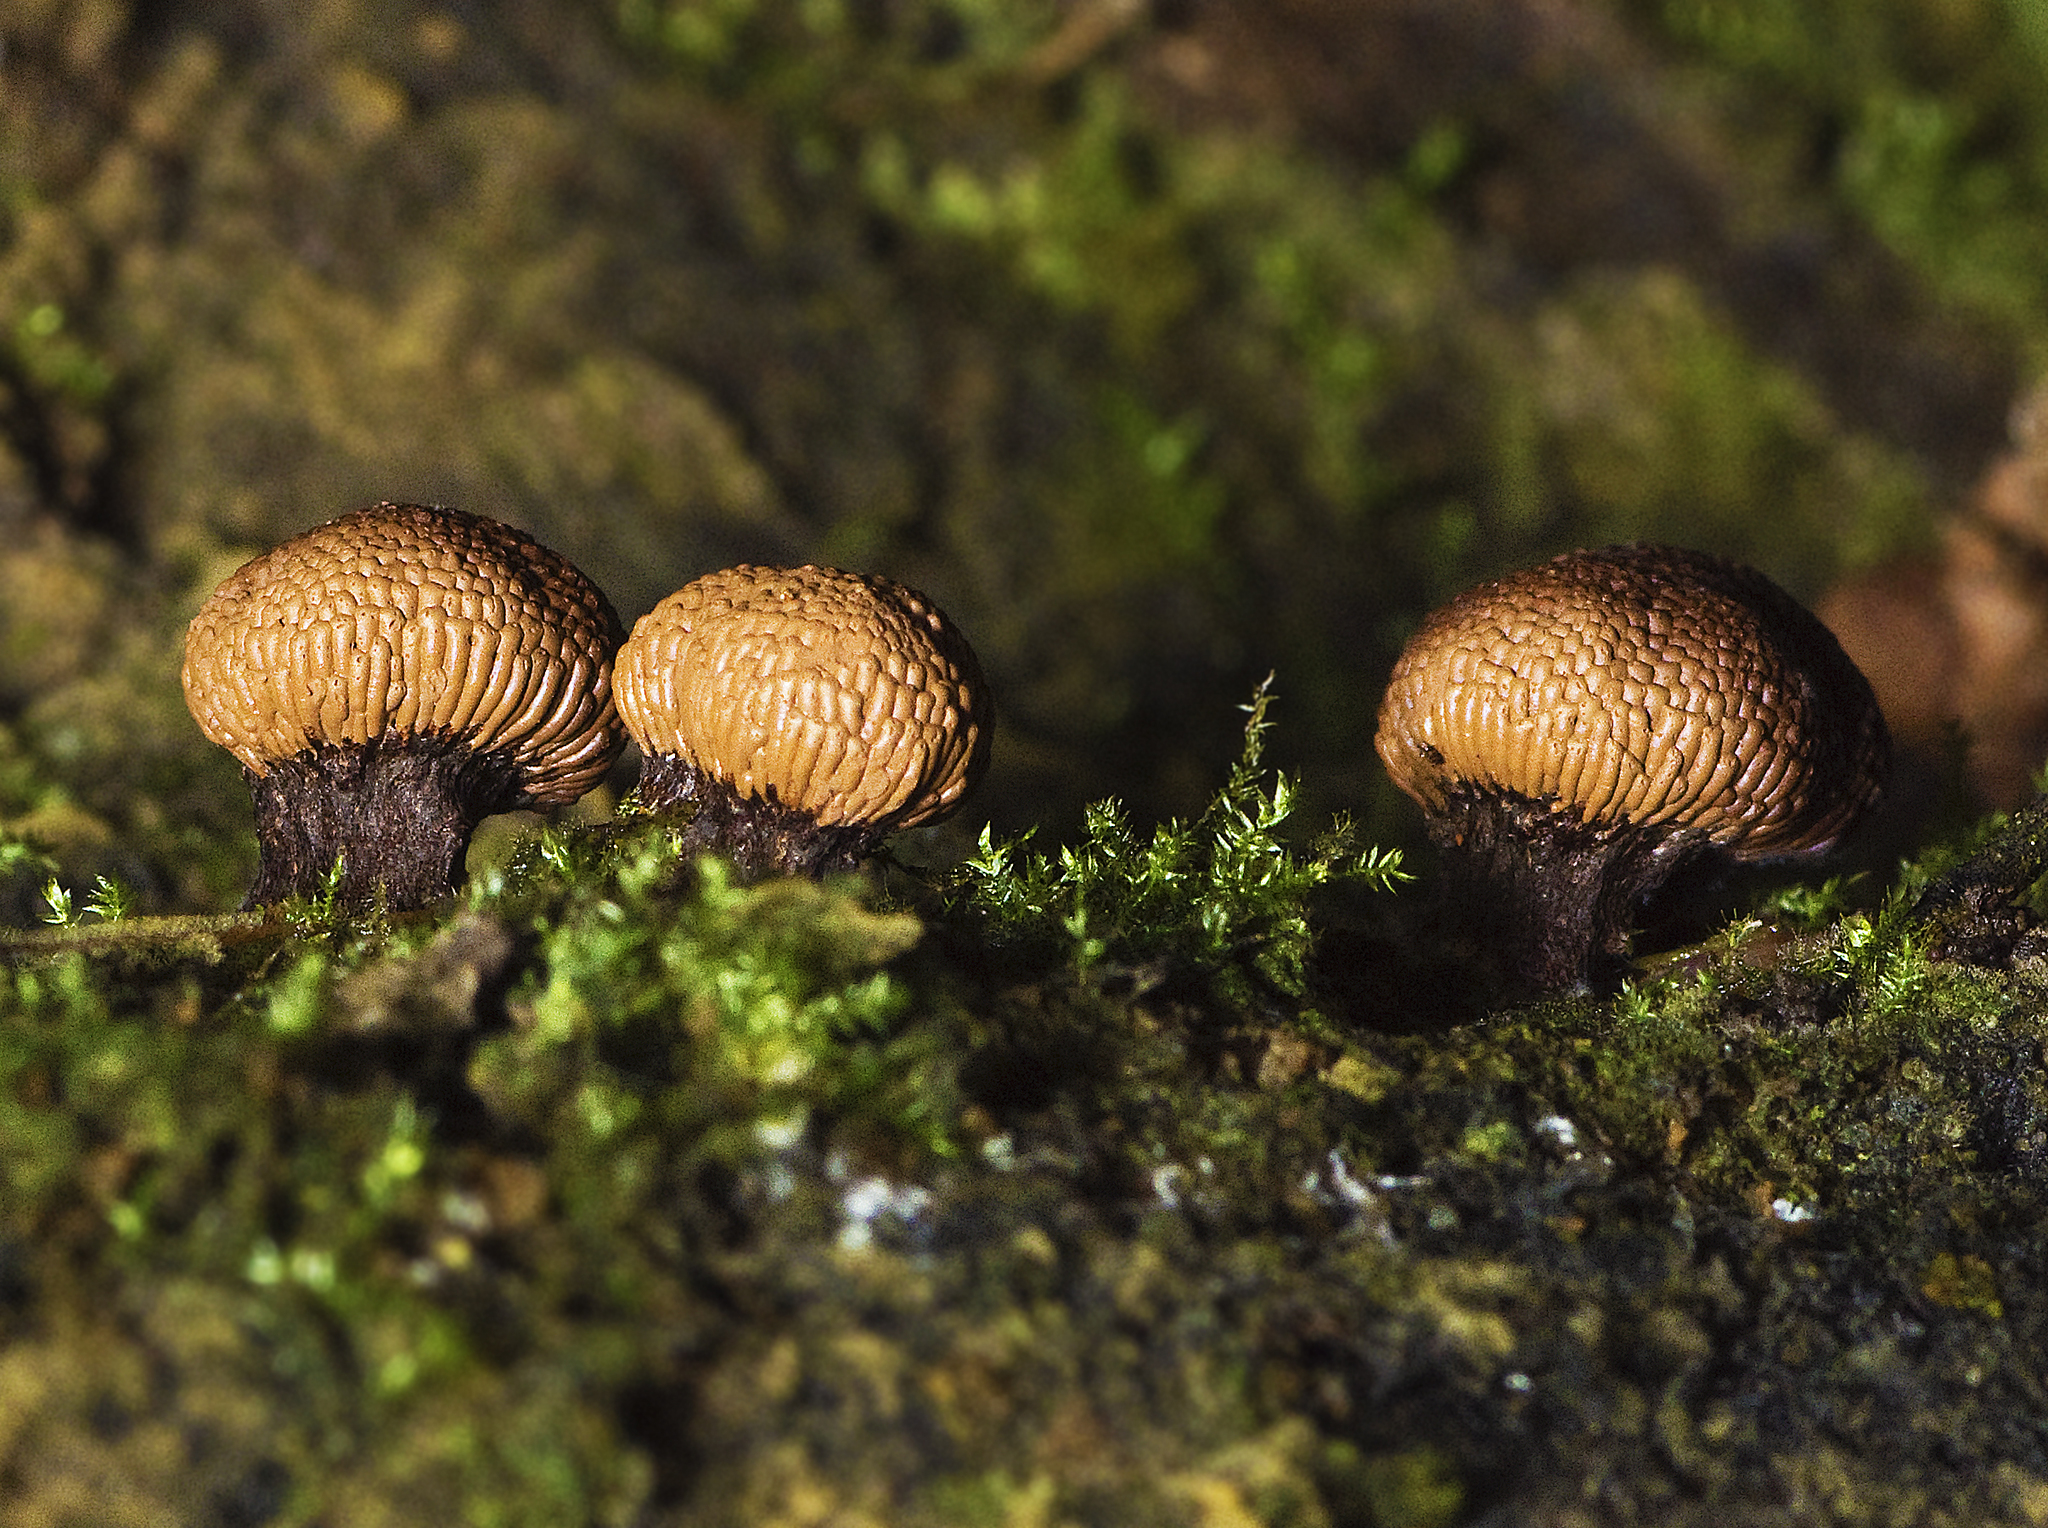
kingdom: Protozoa
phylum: Mycetozoa
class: Myxomycetes
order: Cribrariales
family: Tubiferaceae
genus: Tubifera
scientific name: Tubifera microsperma
